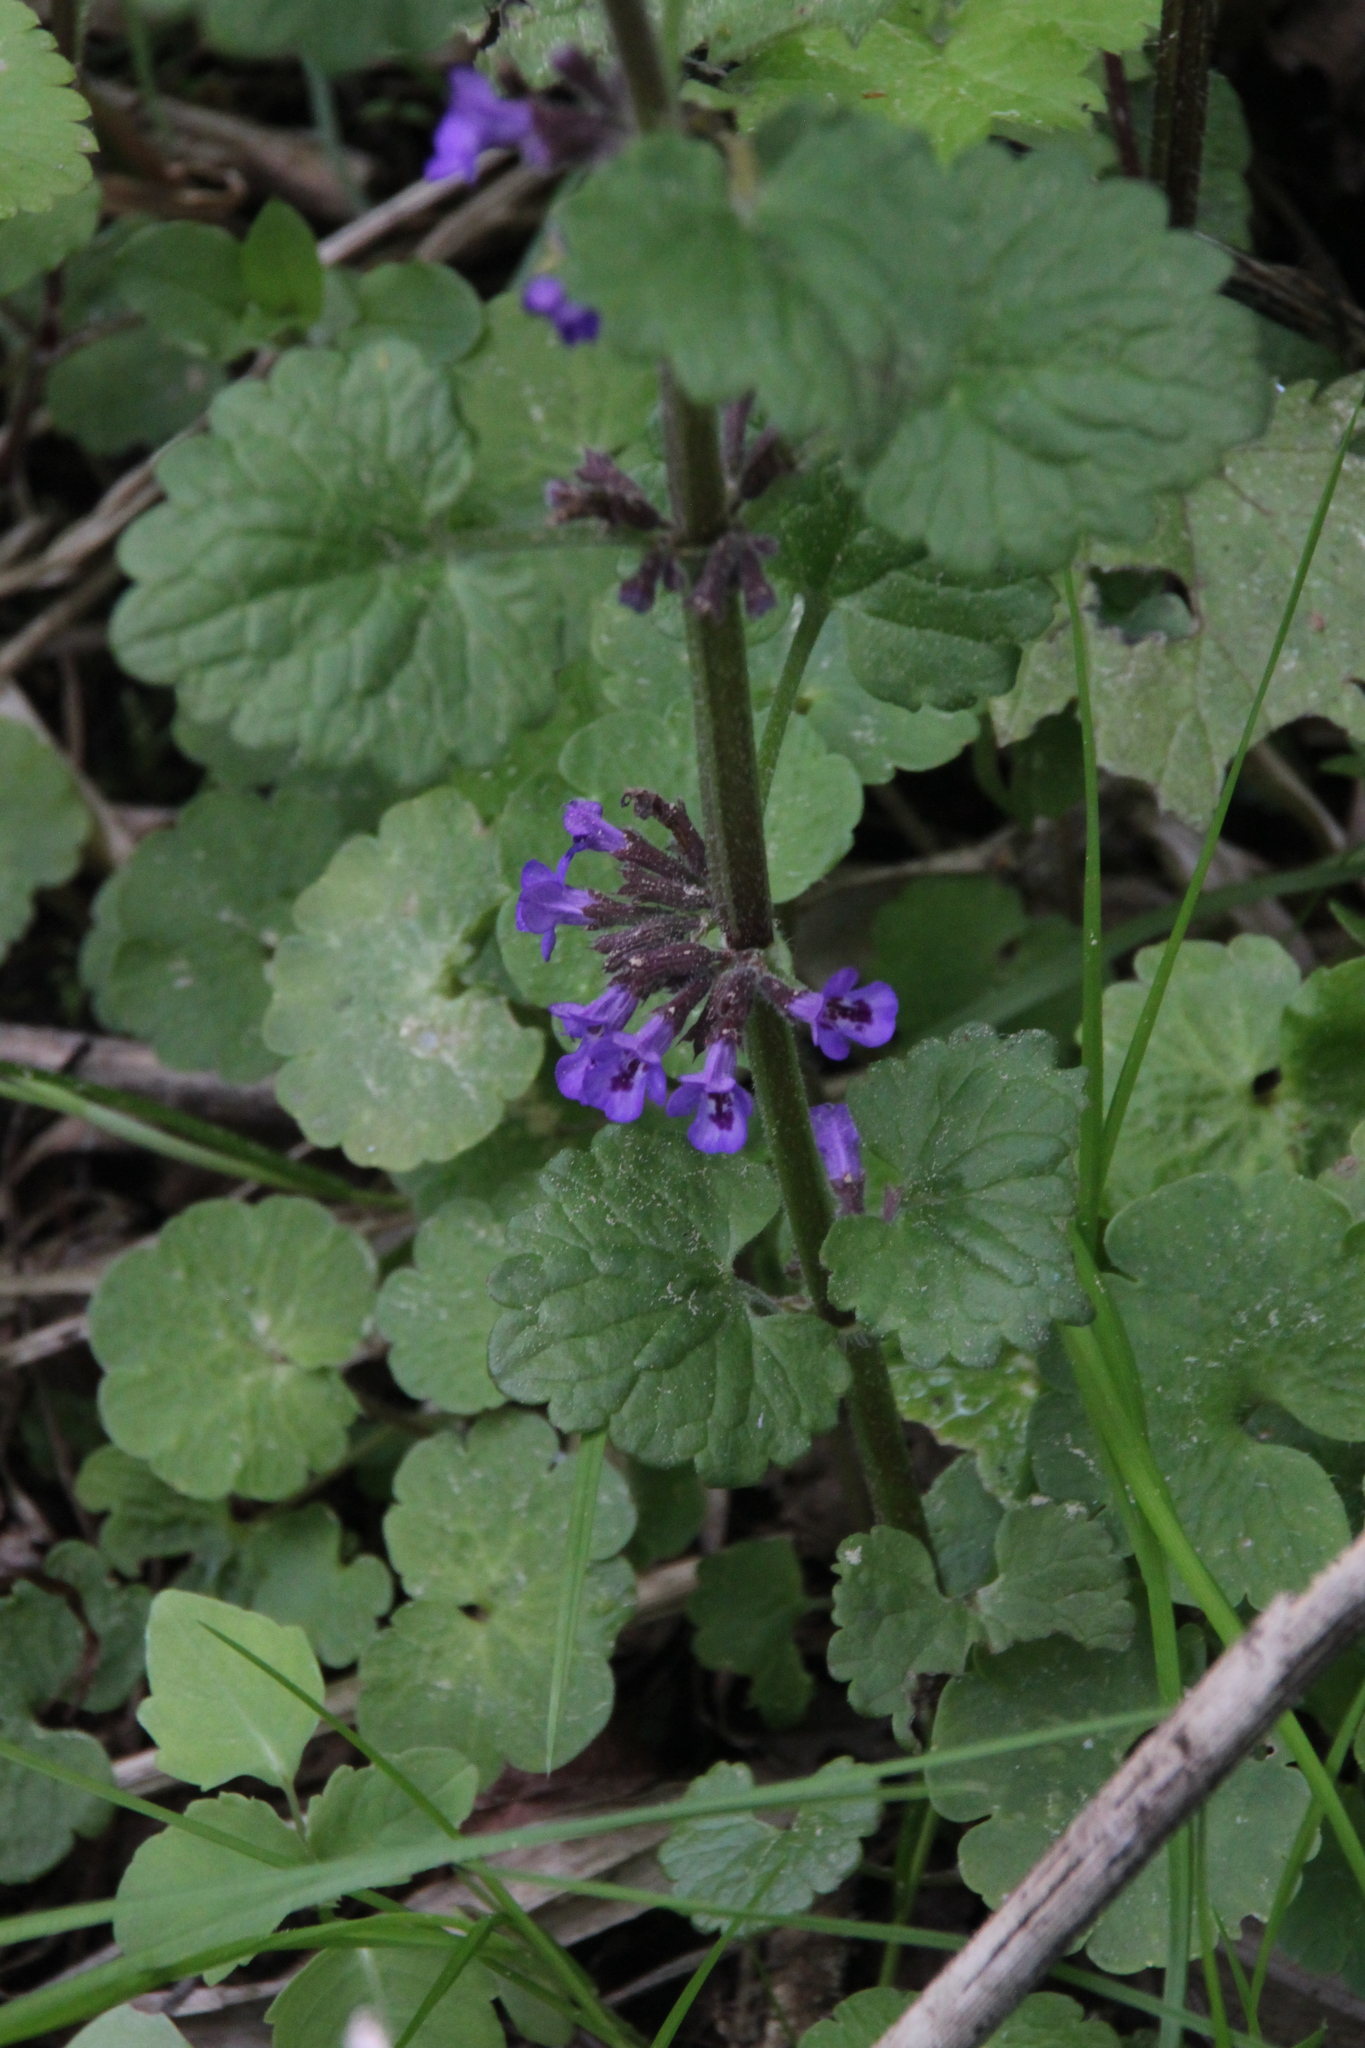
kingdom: Plantae
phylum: Tracheophyta
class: Magnoliopsida
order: Lamiales
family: Lamiaceae
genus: Glechoma
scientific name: Glechoma hederacea
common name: Ground ivy
